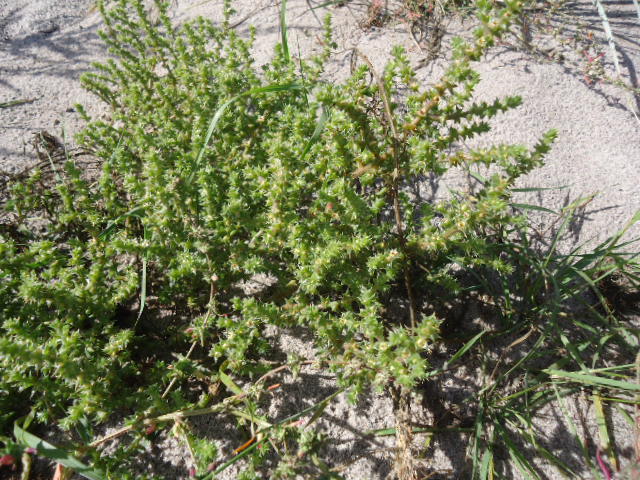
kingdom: Plantae
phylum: Tracheophyta
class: Magnoliopsida
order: Caryophyllales
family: Amaranthaceae
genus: Salsola
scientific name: Salsola kali
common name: Saltwort
